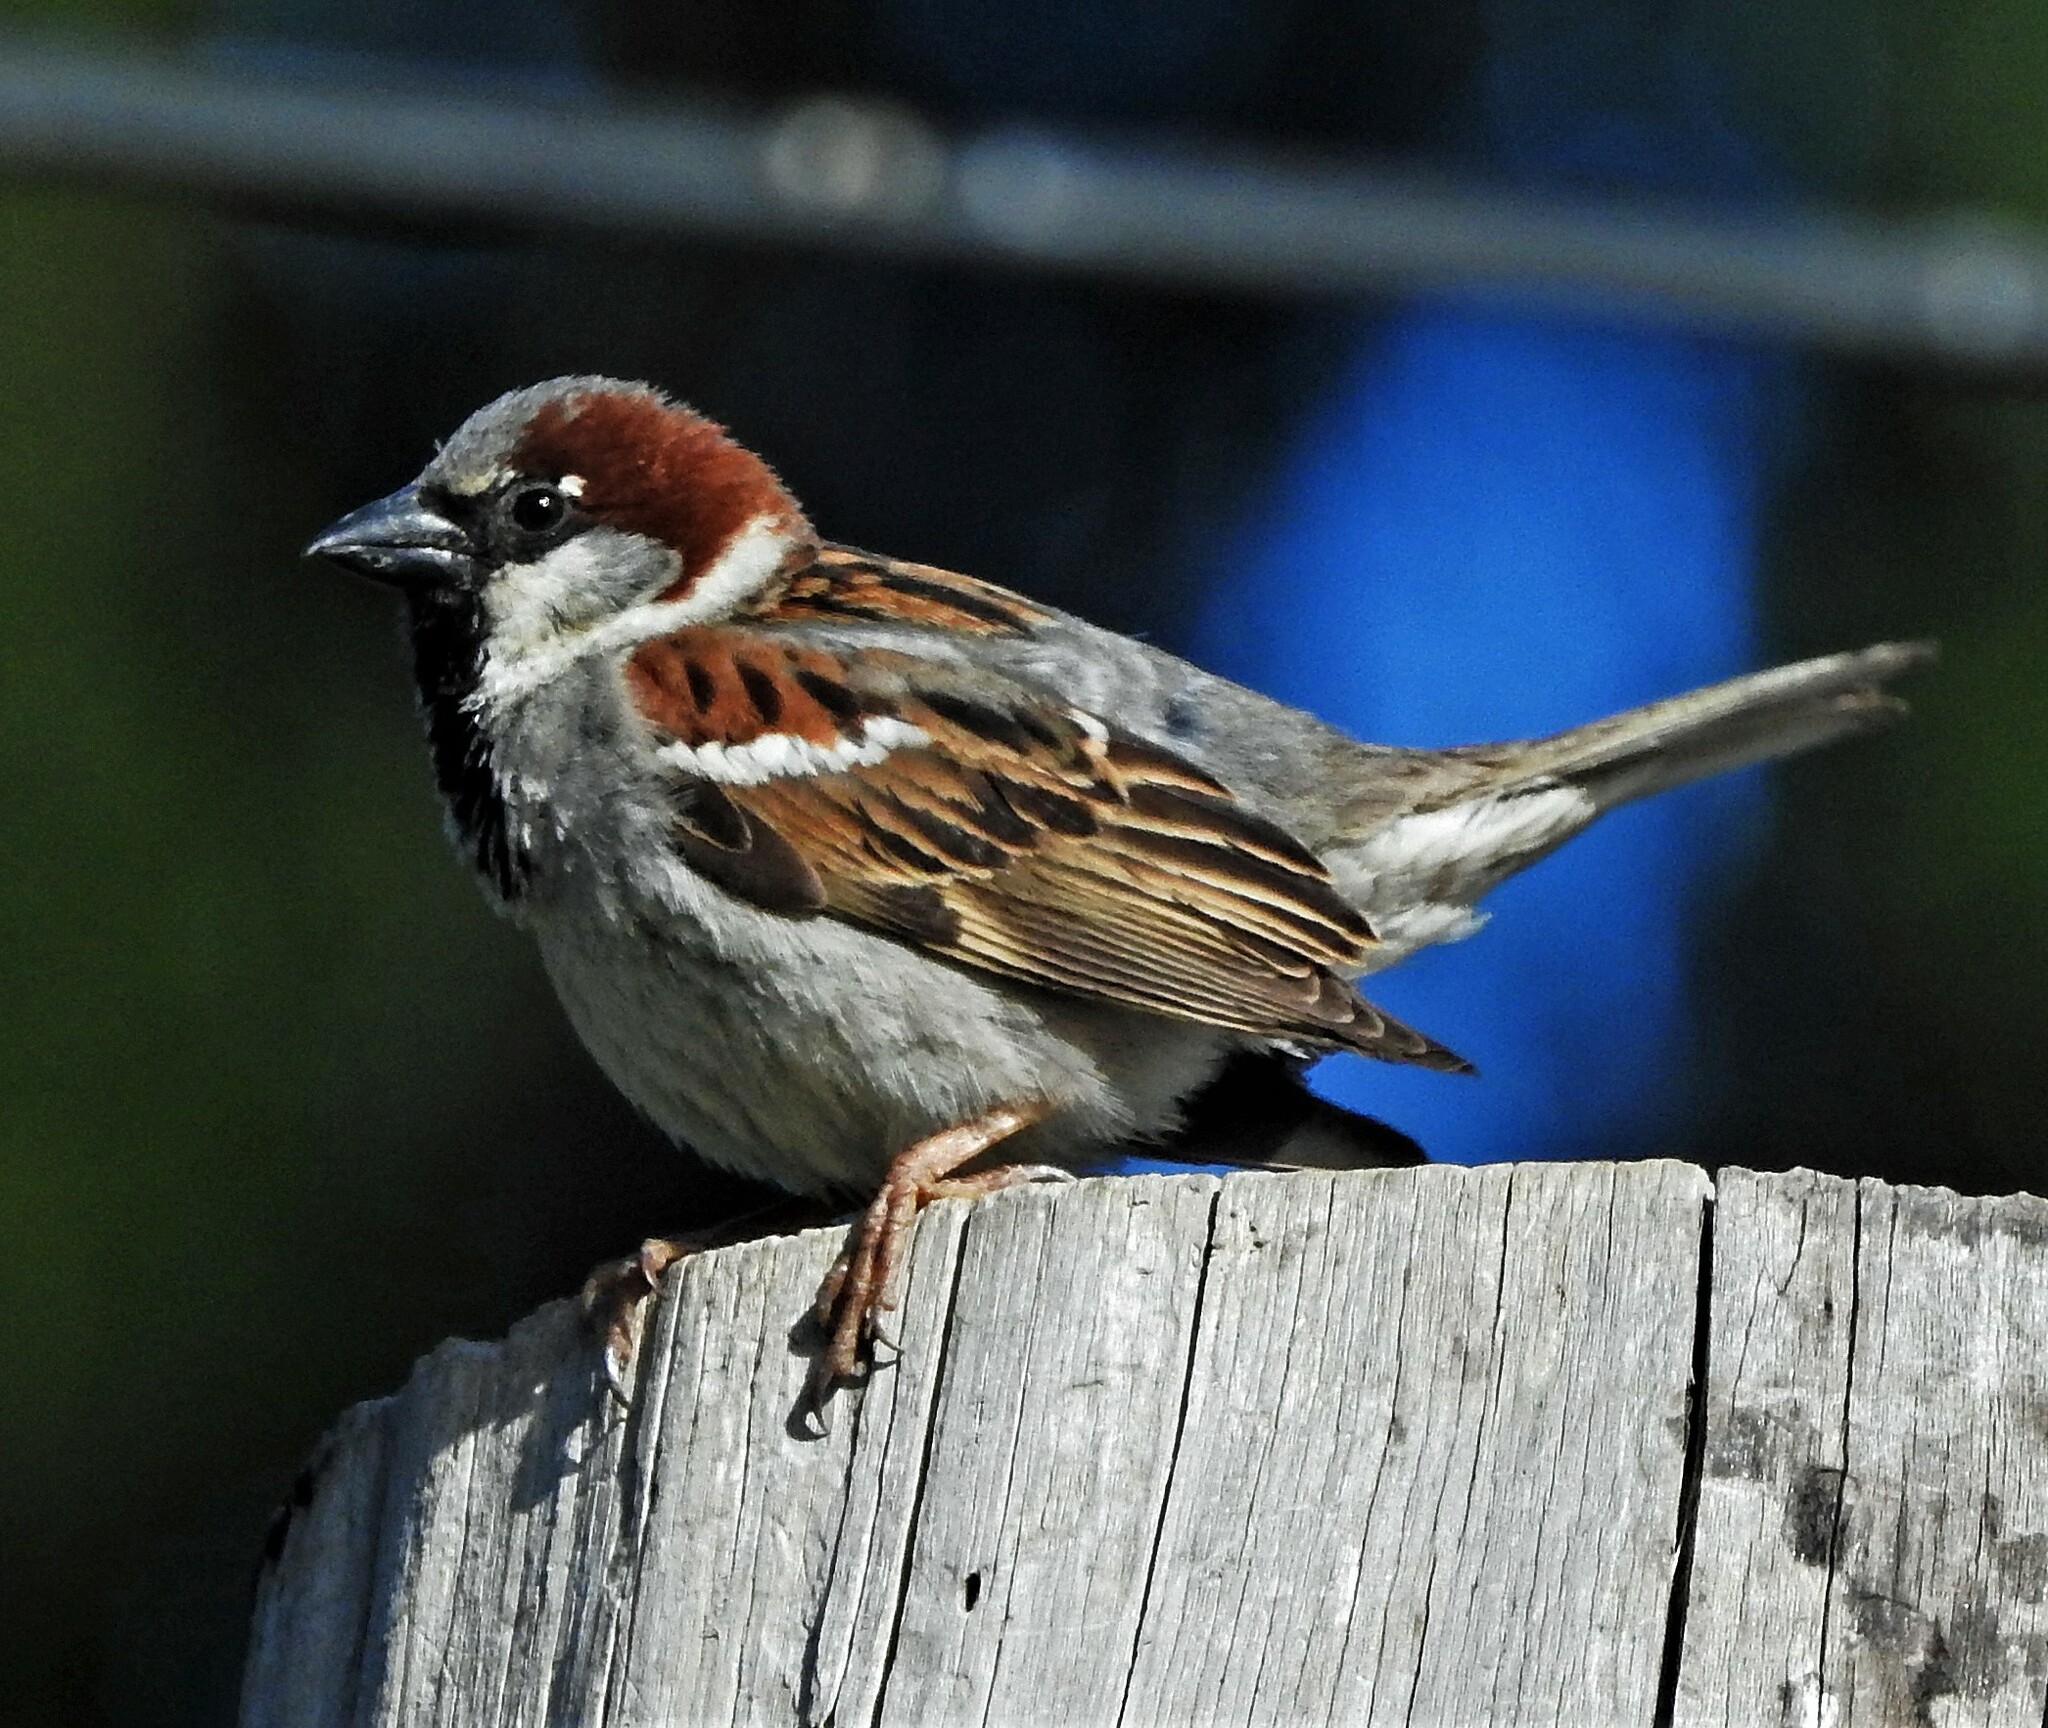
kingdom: Animalia
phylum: Chordata
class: Aves
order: Passeriformes
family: Passeridae
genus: Passer
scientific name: Passer domesticus
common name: House sparrow
